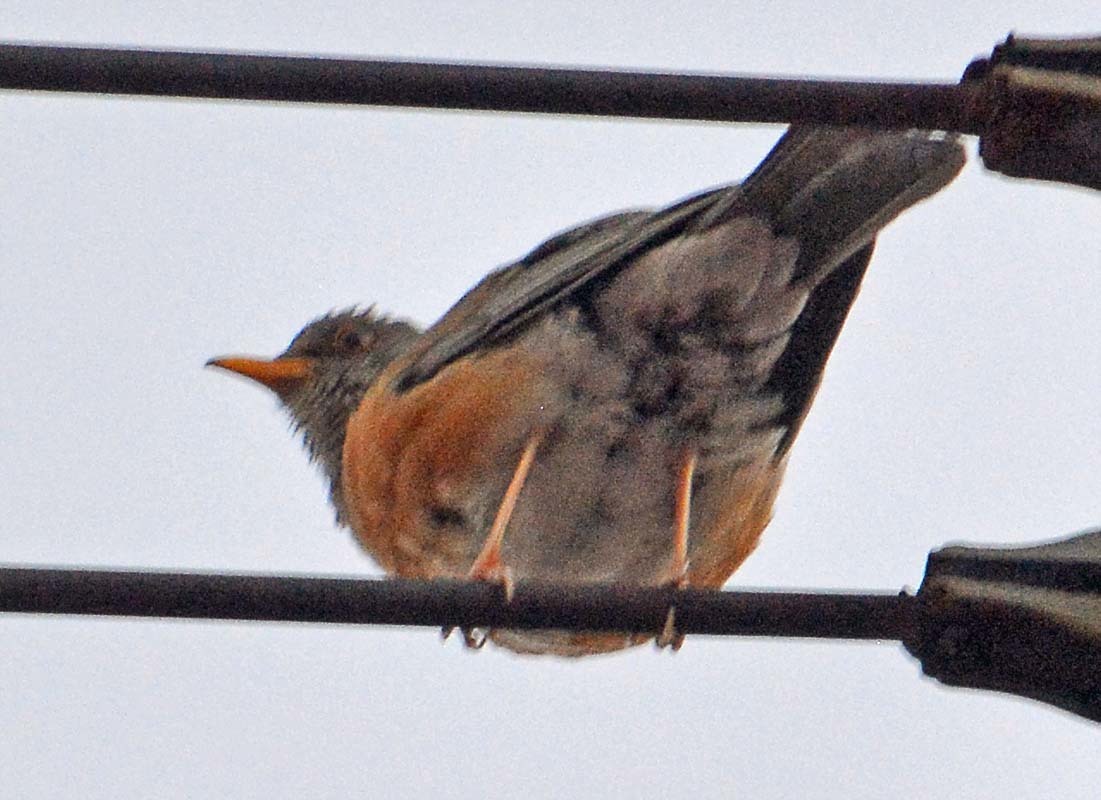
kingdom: Animalia
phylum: Chordata
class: Aves
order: Passeriformes
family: Turdidae
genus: Turdus
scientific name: Turdus rufopalliatus
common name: Rufous-backed robin
